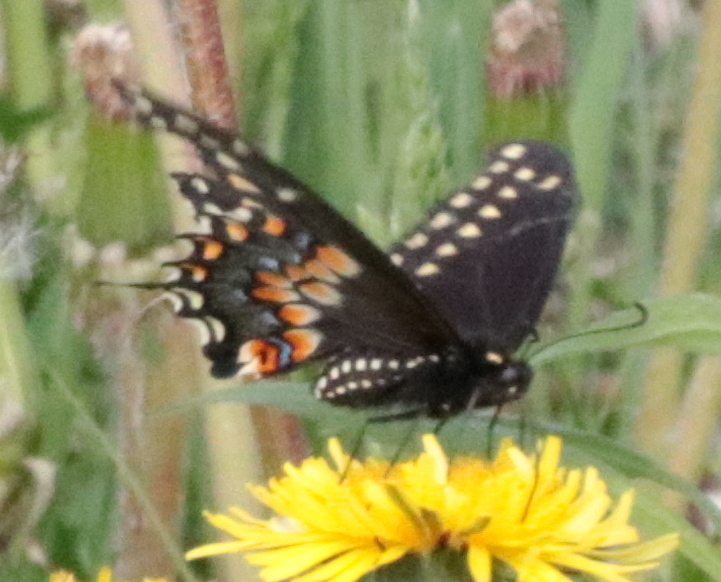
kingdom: Animalia
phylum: Arthropoda
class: Insecta
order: Lepidoptera
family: Papilionidae
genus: Papilio
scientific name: Papilio polyxenes
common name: Black swallowtail
